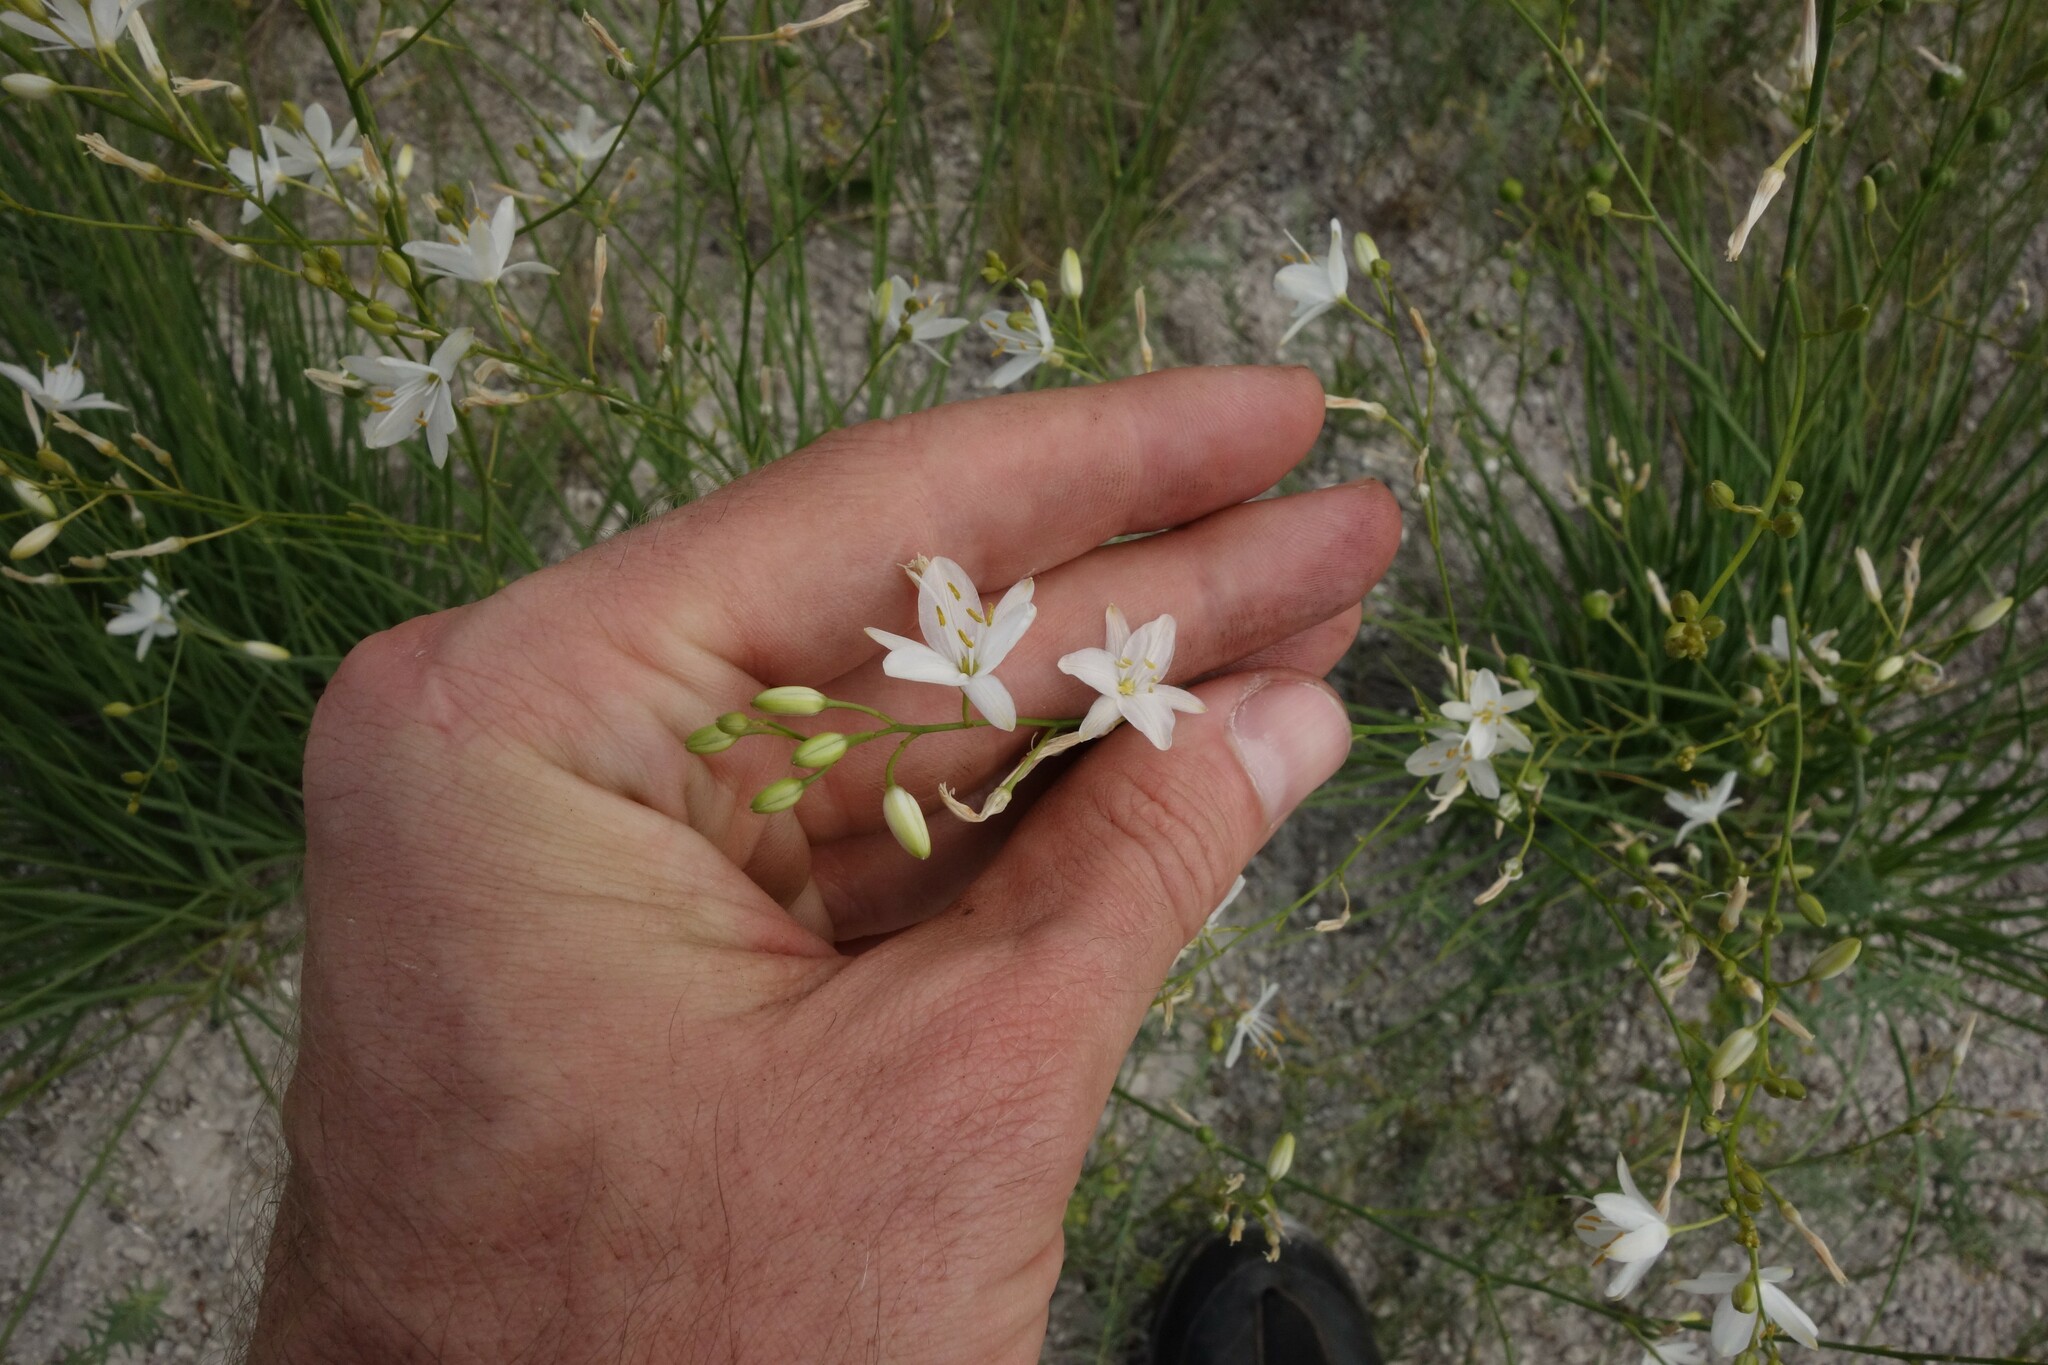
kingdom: Plantae
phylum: Tracheophyta
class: Liliopsida
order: Asparagales
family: Asparagaceae
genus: Anthericum
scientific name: Anthericum ramosum
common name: Branched st. bernard's-lily
